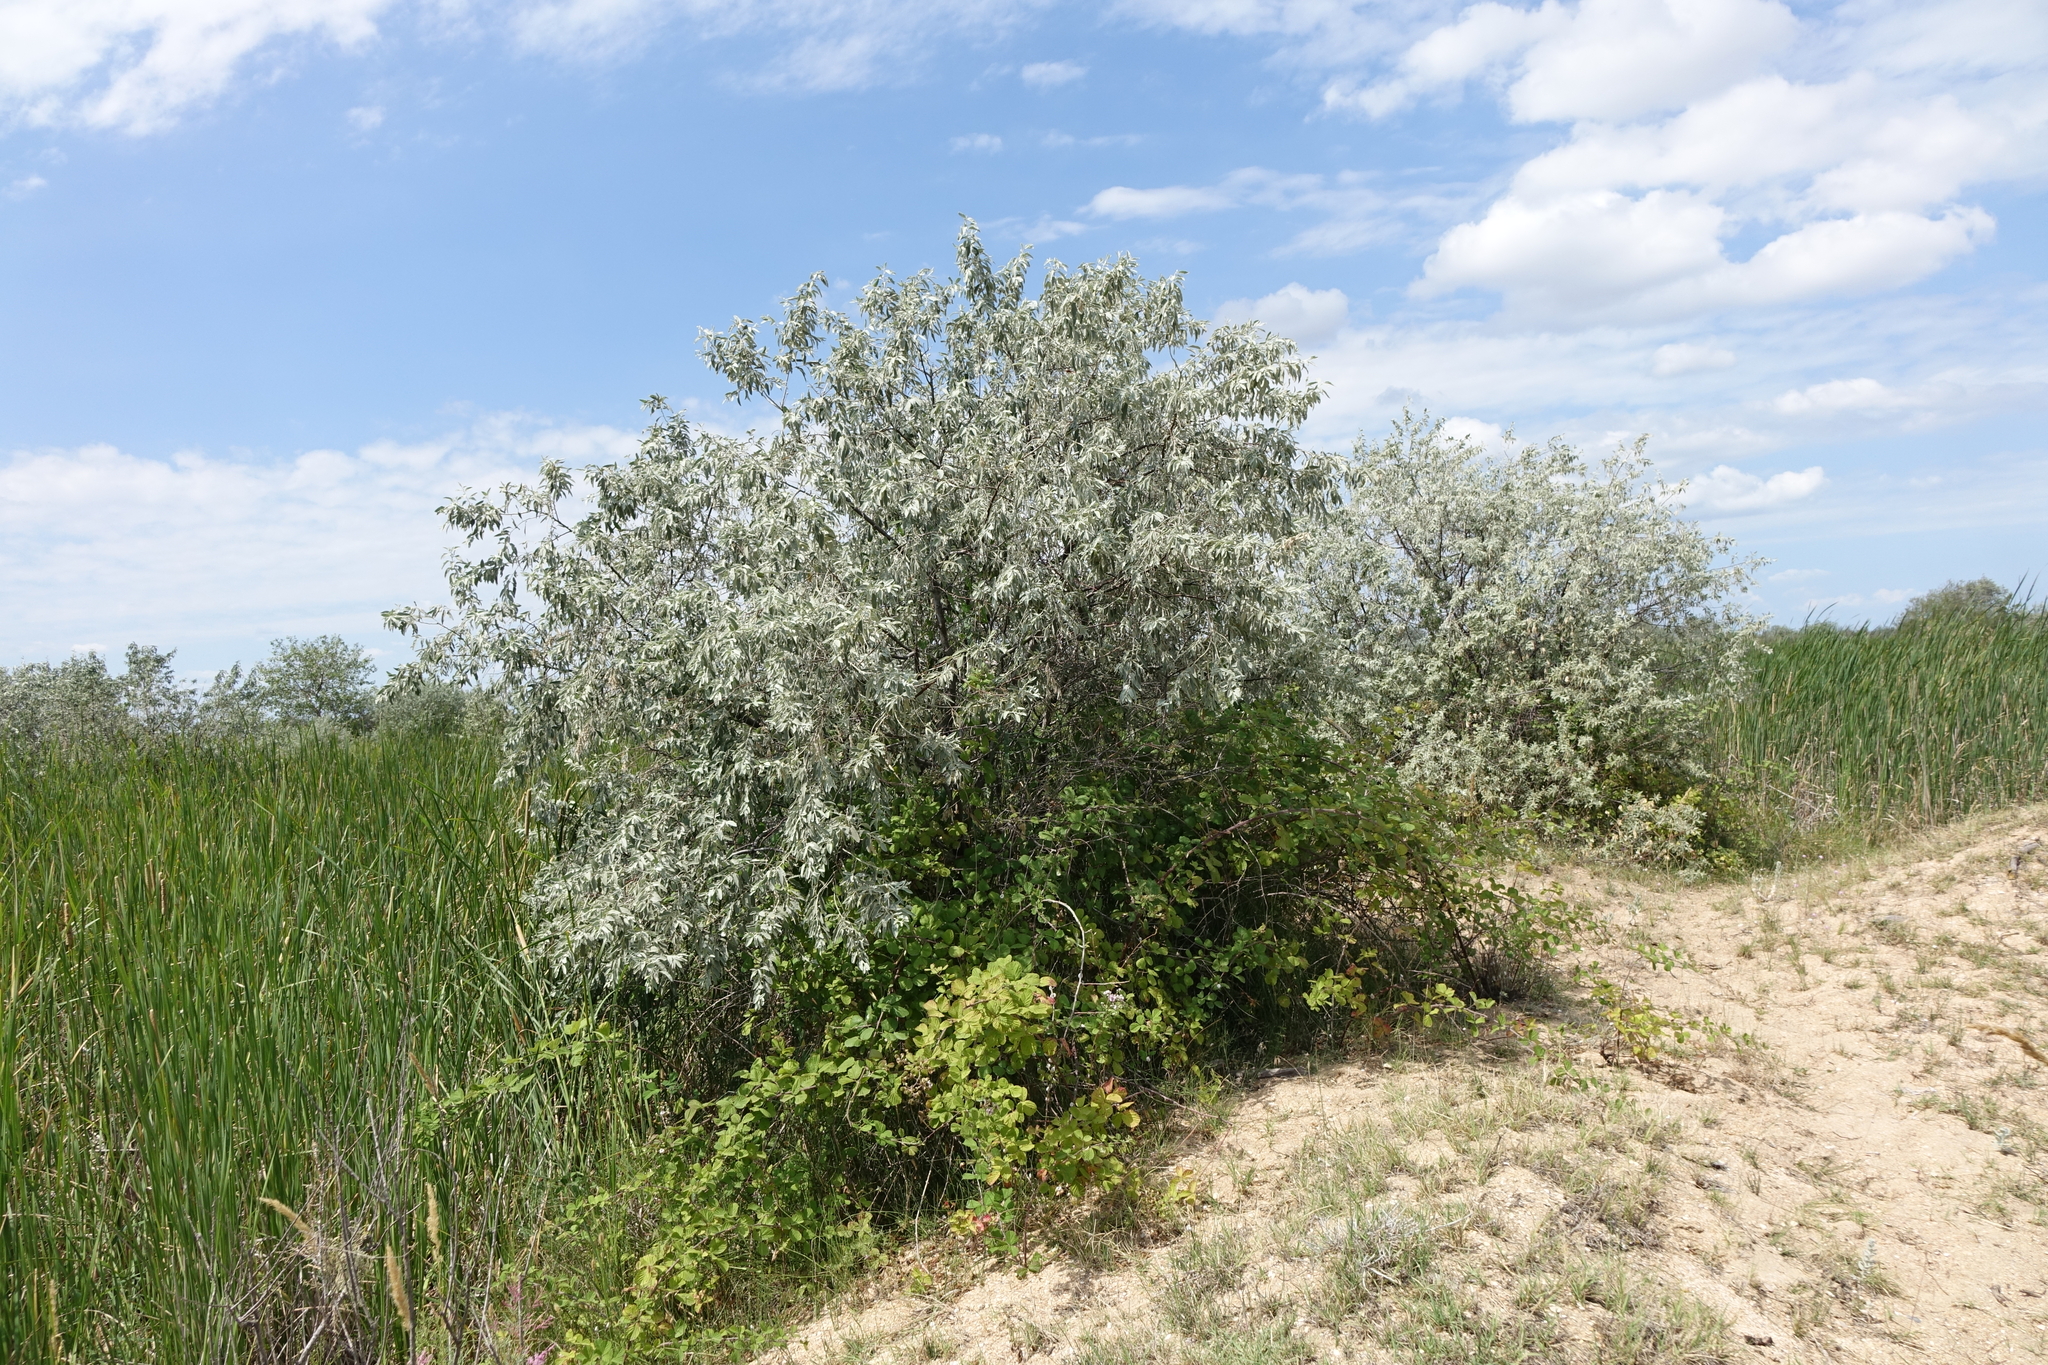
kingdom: Plantae
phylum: Tracheophyta
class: Magnoliopsida
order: Rosales
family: Elaeagnaceae
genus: Elaeagnus
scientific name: Elaeagnus angustifolia
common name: Russian olive
